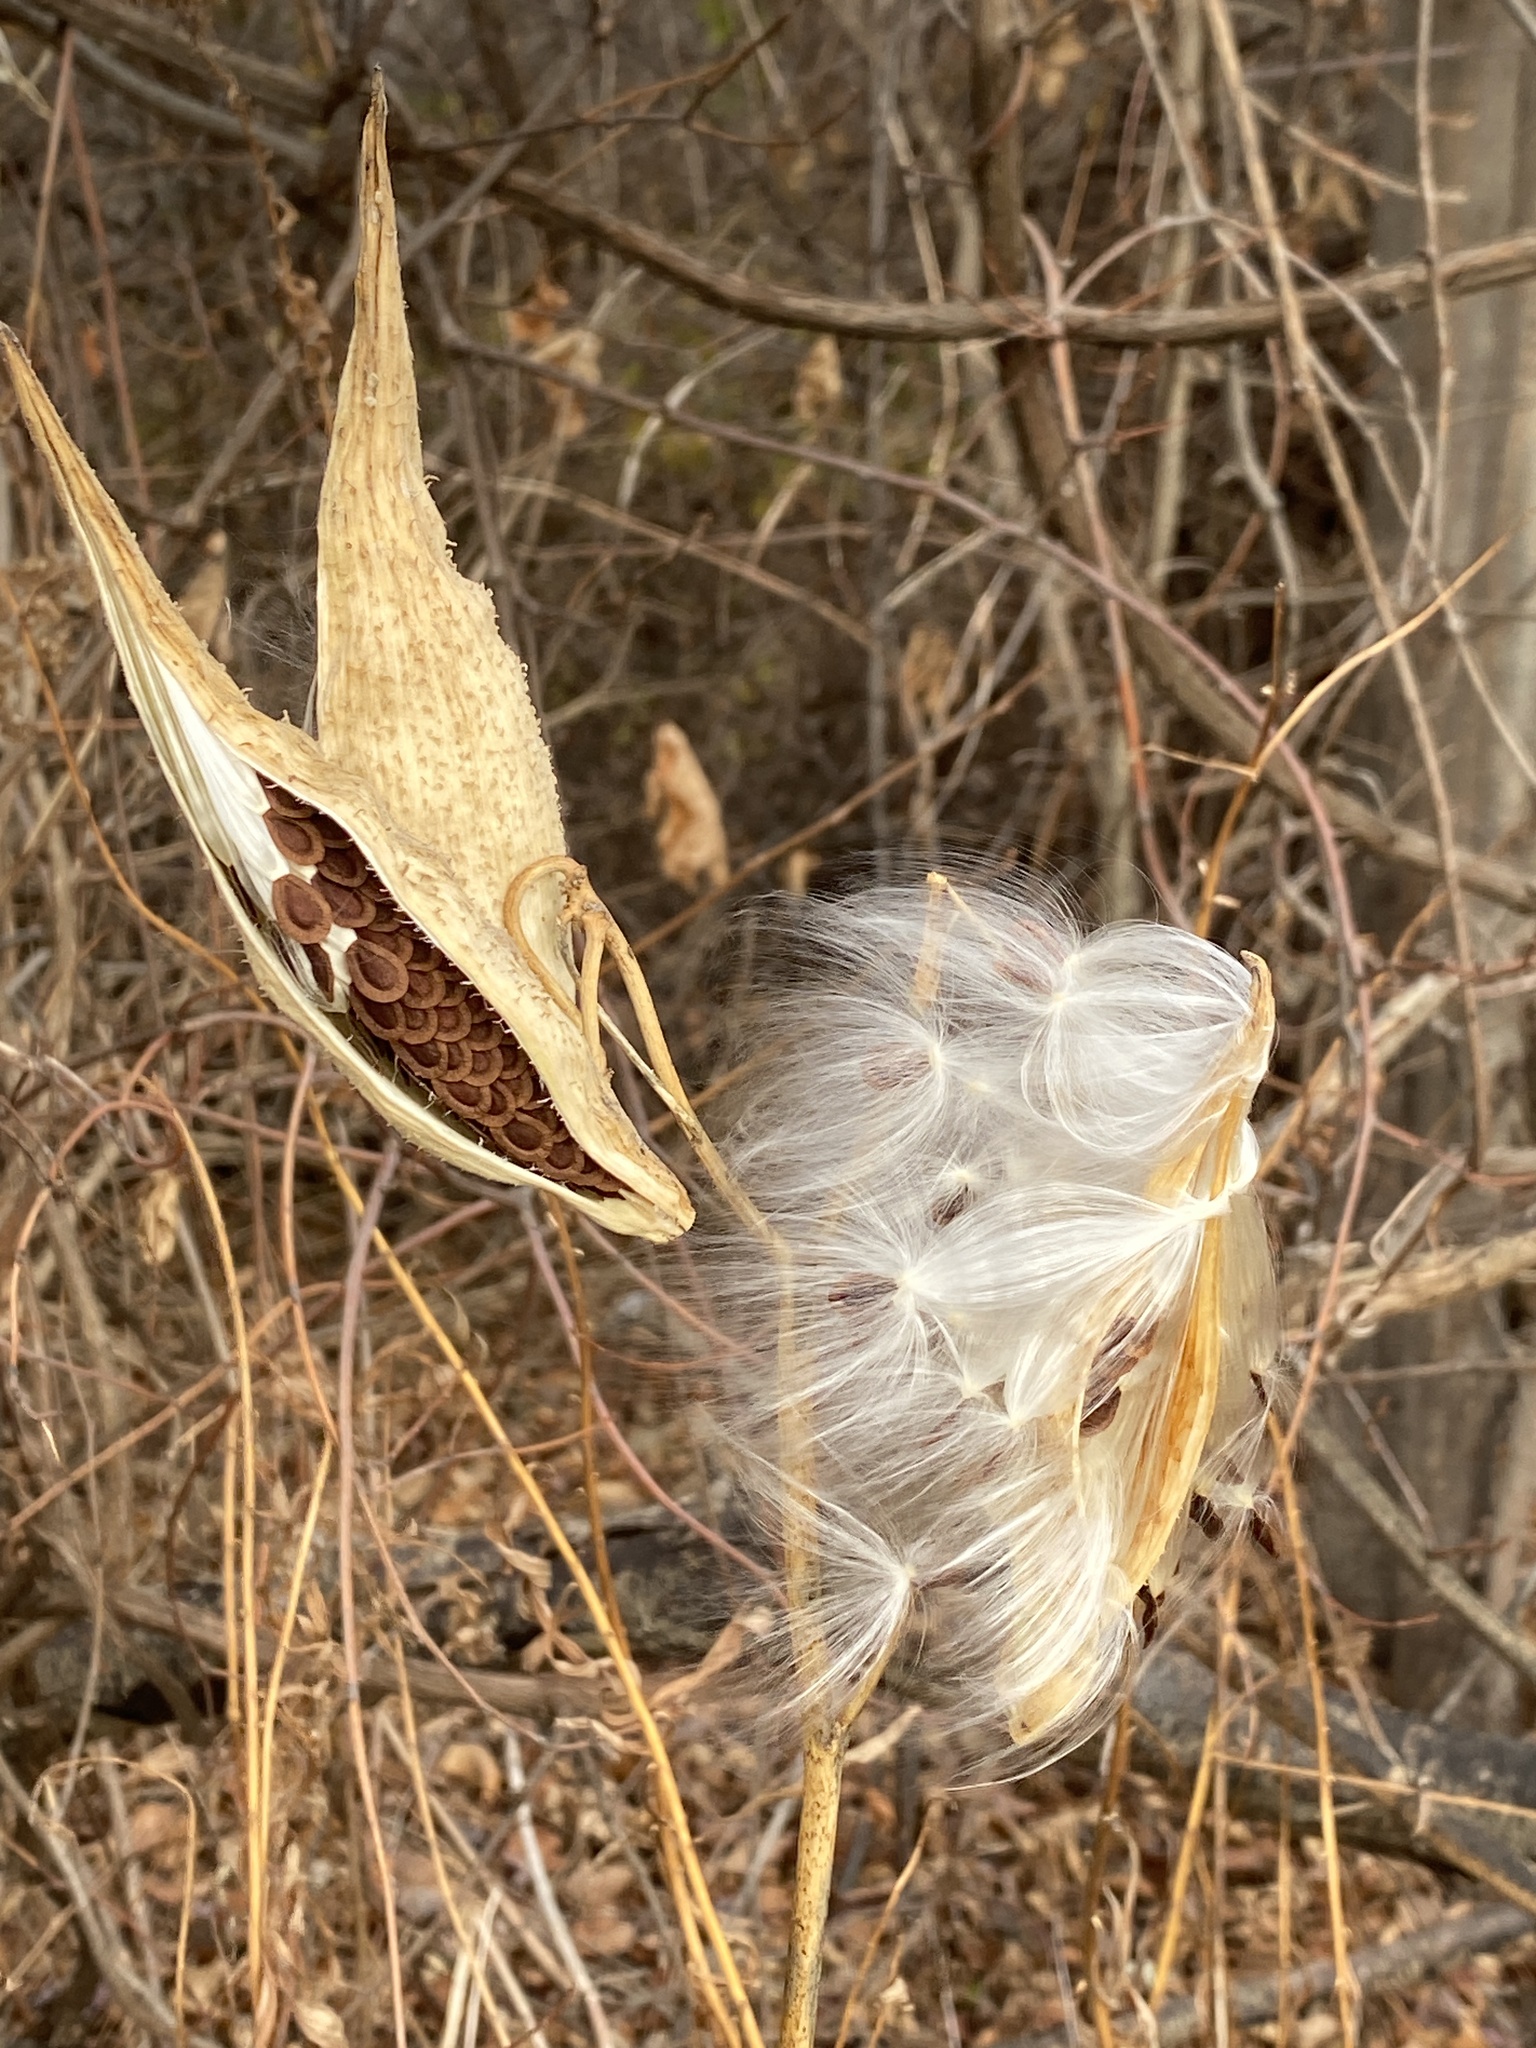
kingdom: Plantae
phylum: Tracheophyta
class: Magnoliopsida
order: Gentianales
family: Apocynaceae
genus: Asclepias
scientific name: Asclepias syriaca
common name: Common milkweed
